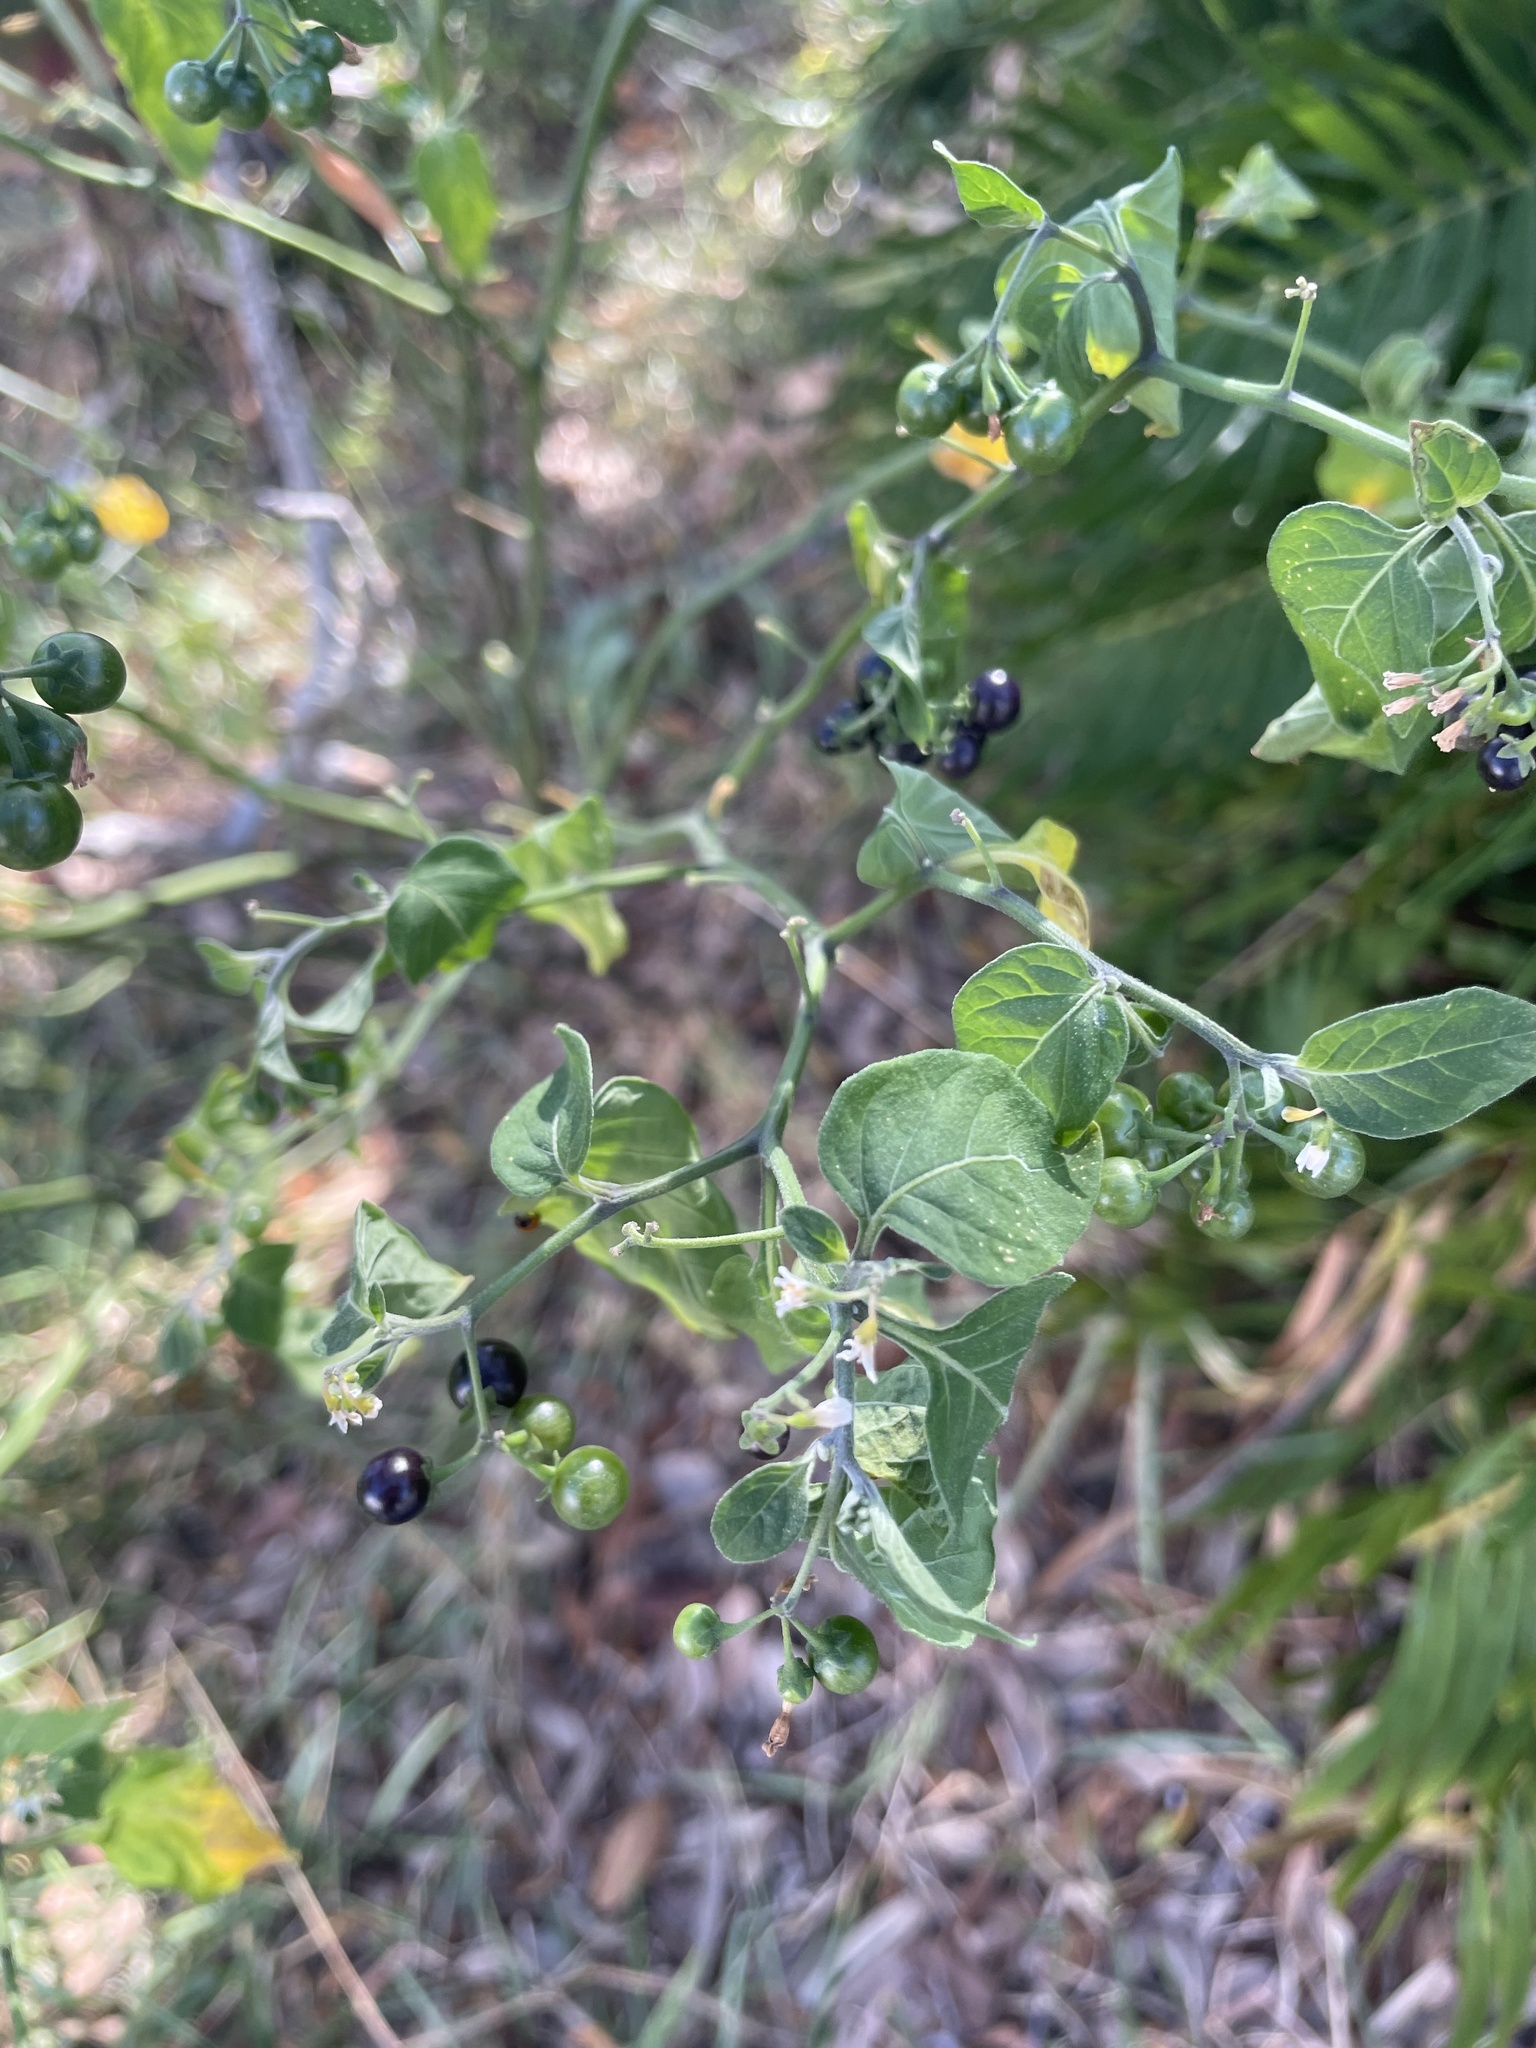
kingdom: Plantae
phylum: Tracheophyta
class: Magnoliopsida
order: Solanales
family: Solanaceae
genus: Solanum
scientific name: Solanum americanum
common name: American black nightshade
